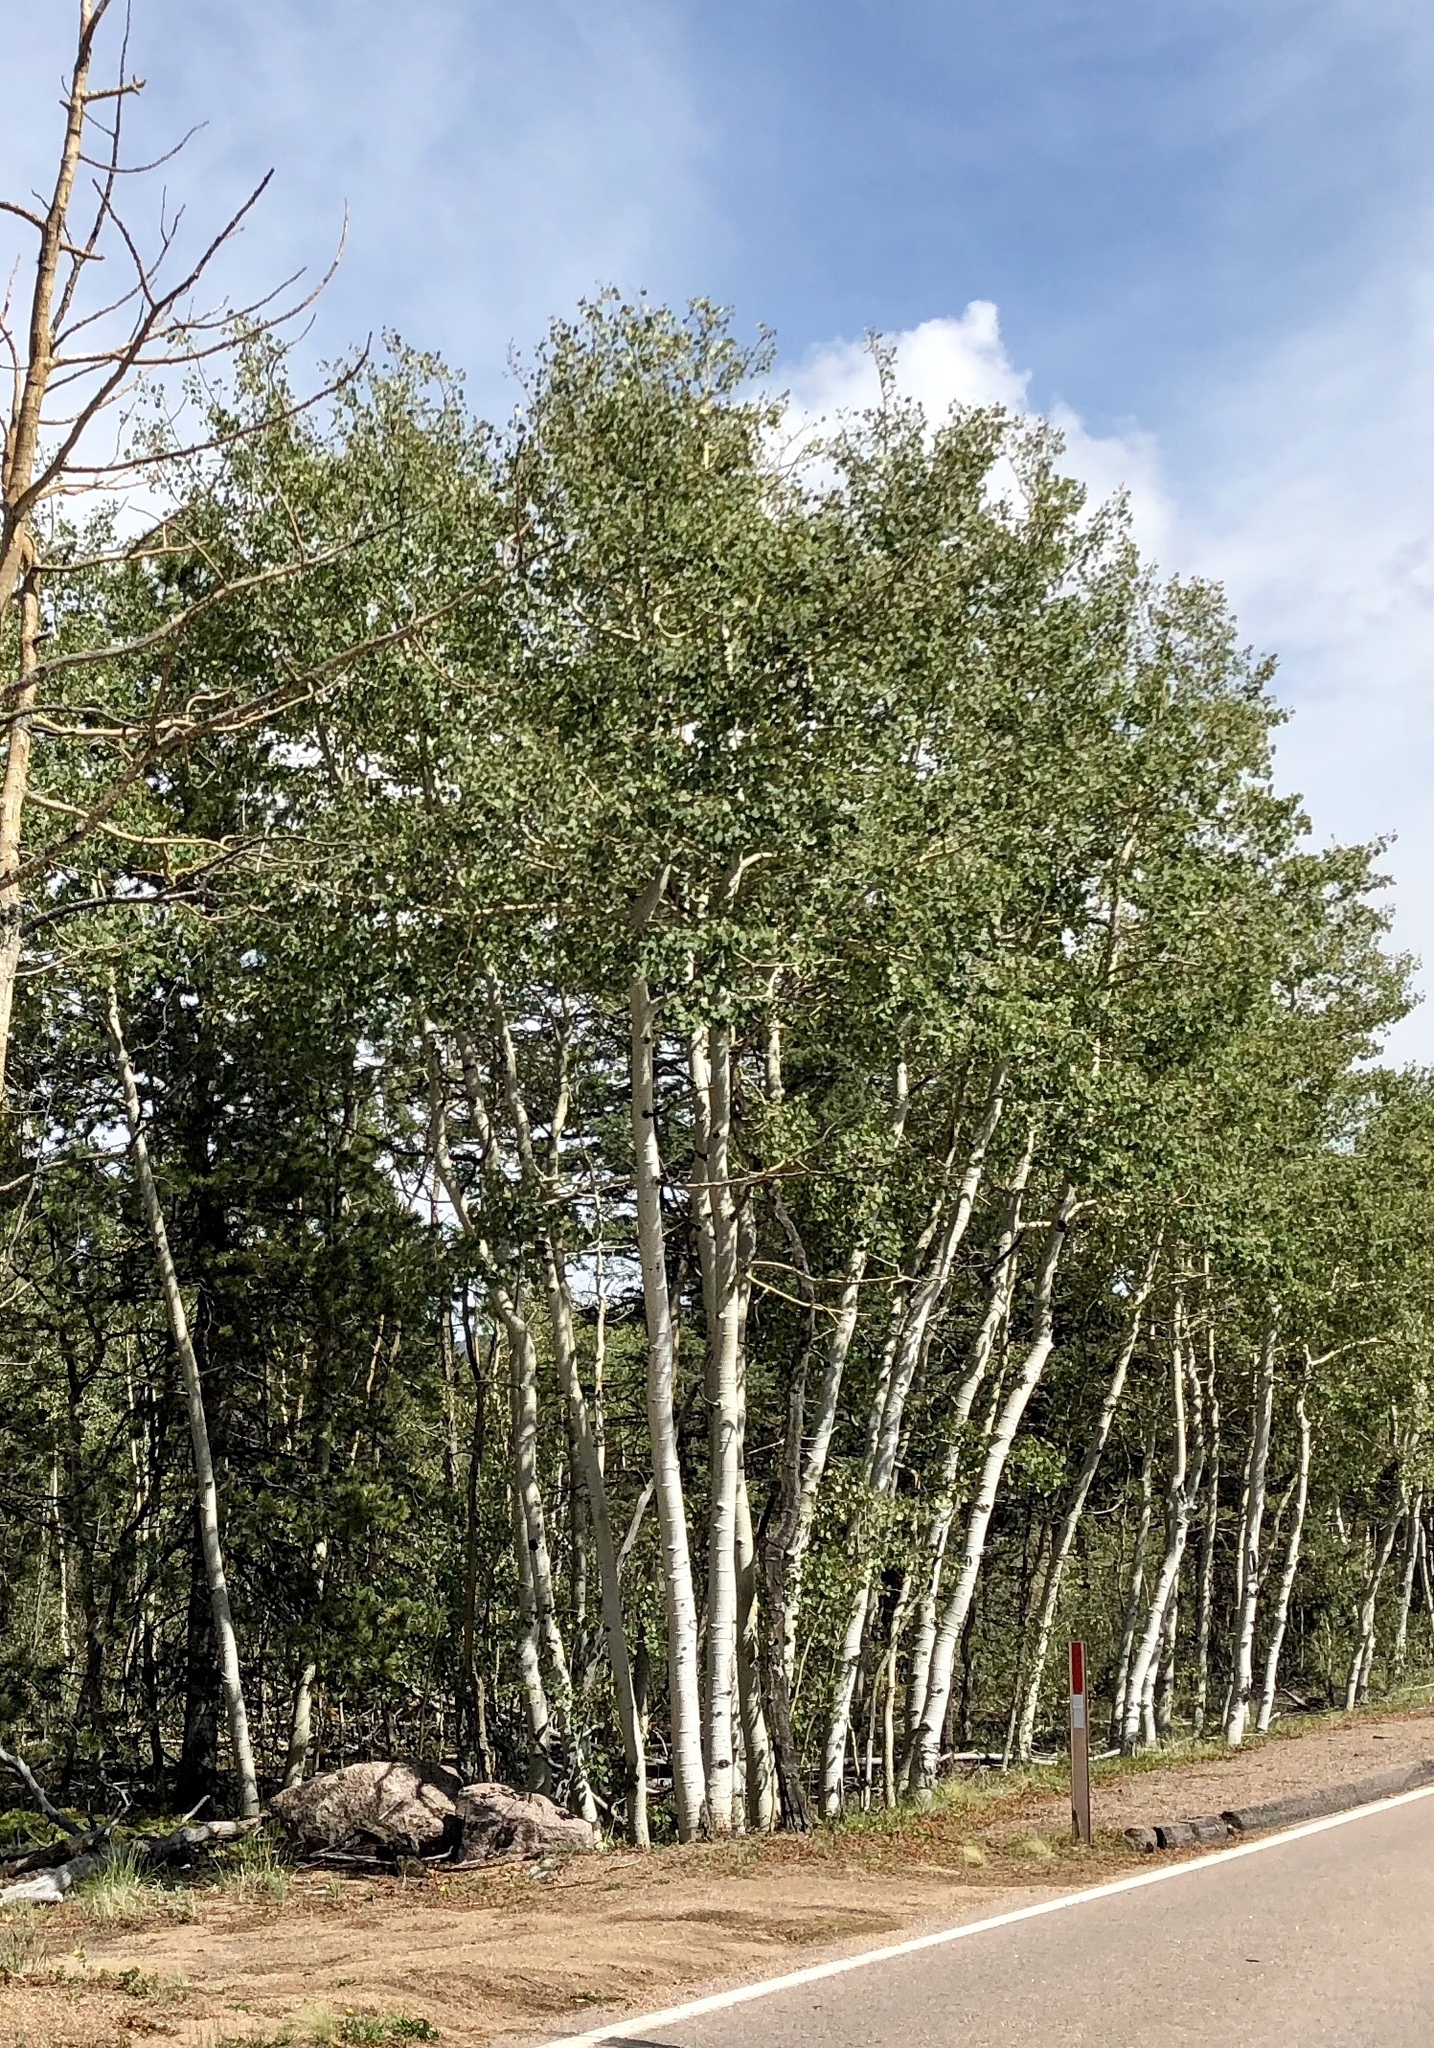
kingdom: Plantae
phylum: Tracheophyta
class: Magnoliopsida
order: Malpighiales
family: Salicaceae
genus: Populus
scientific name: Populus tremuloides
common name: Quaking aspen
